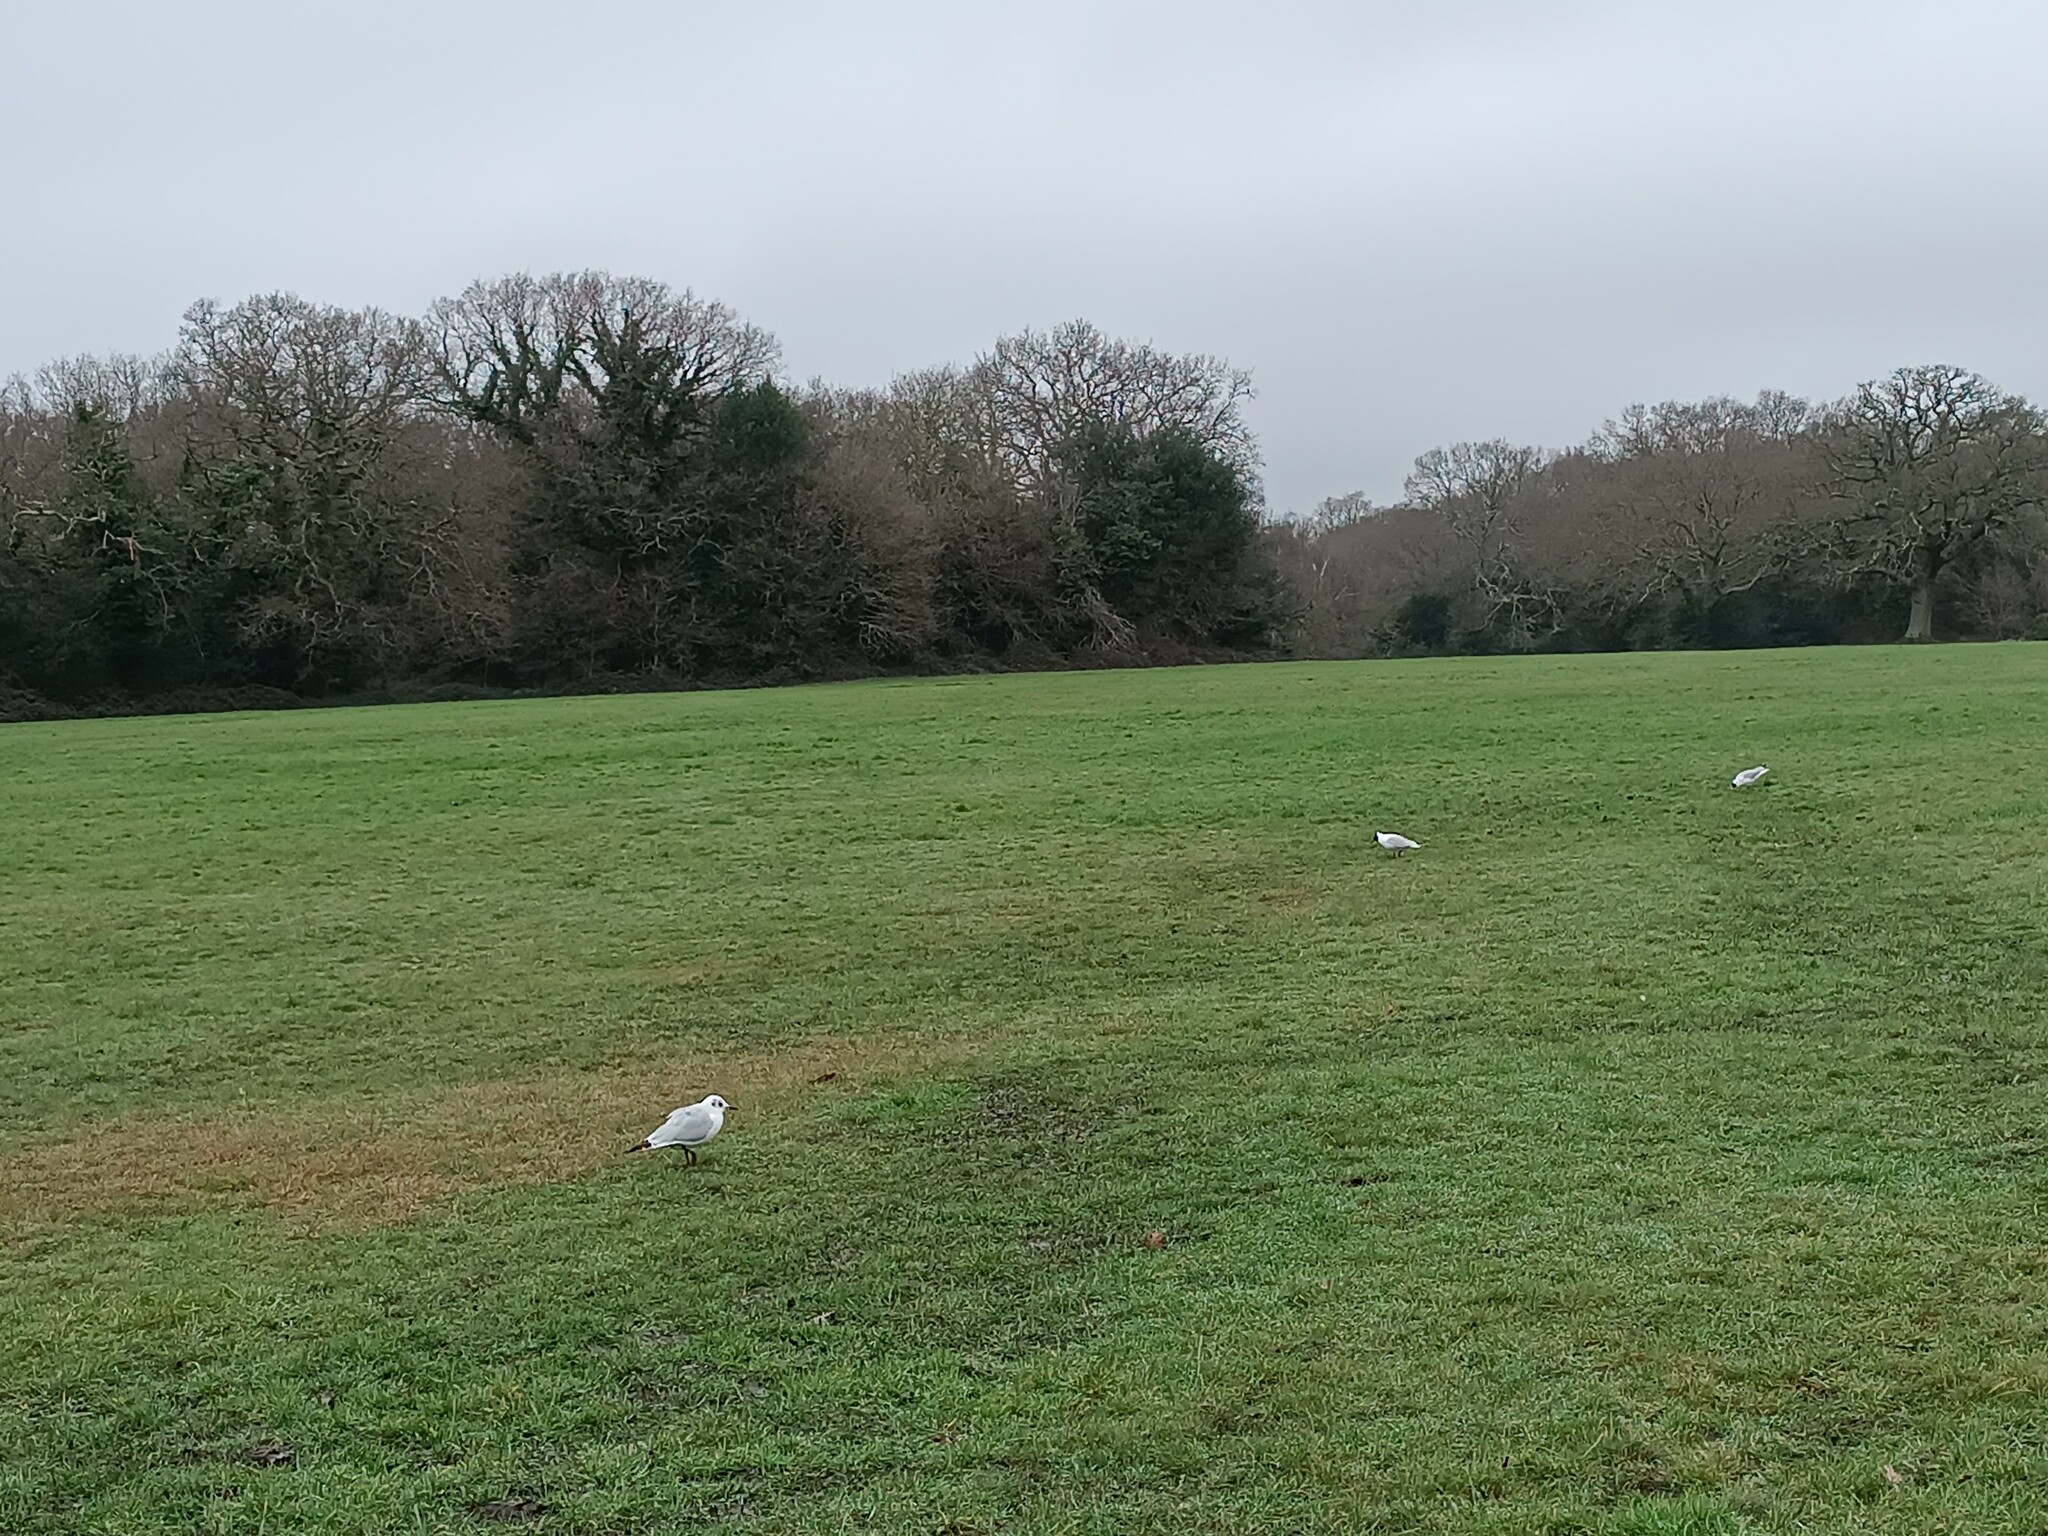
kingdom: Animalia
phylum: Chordata
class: Aves
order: Charadriiformes
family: Laridae
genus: Chroicocephalus
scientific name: Chroicocephalus ridibundus
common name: Black-headed gull
